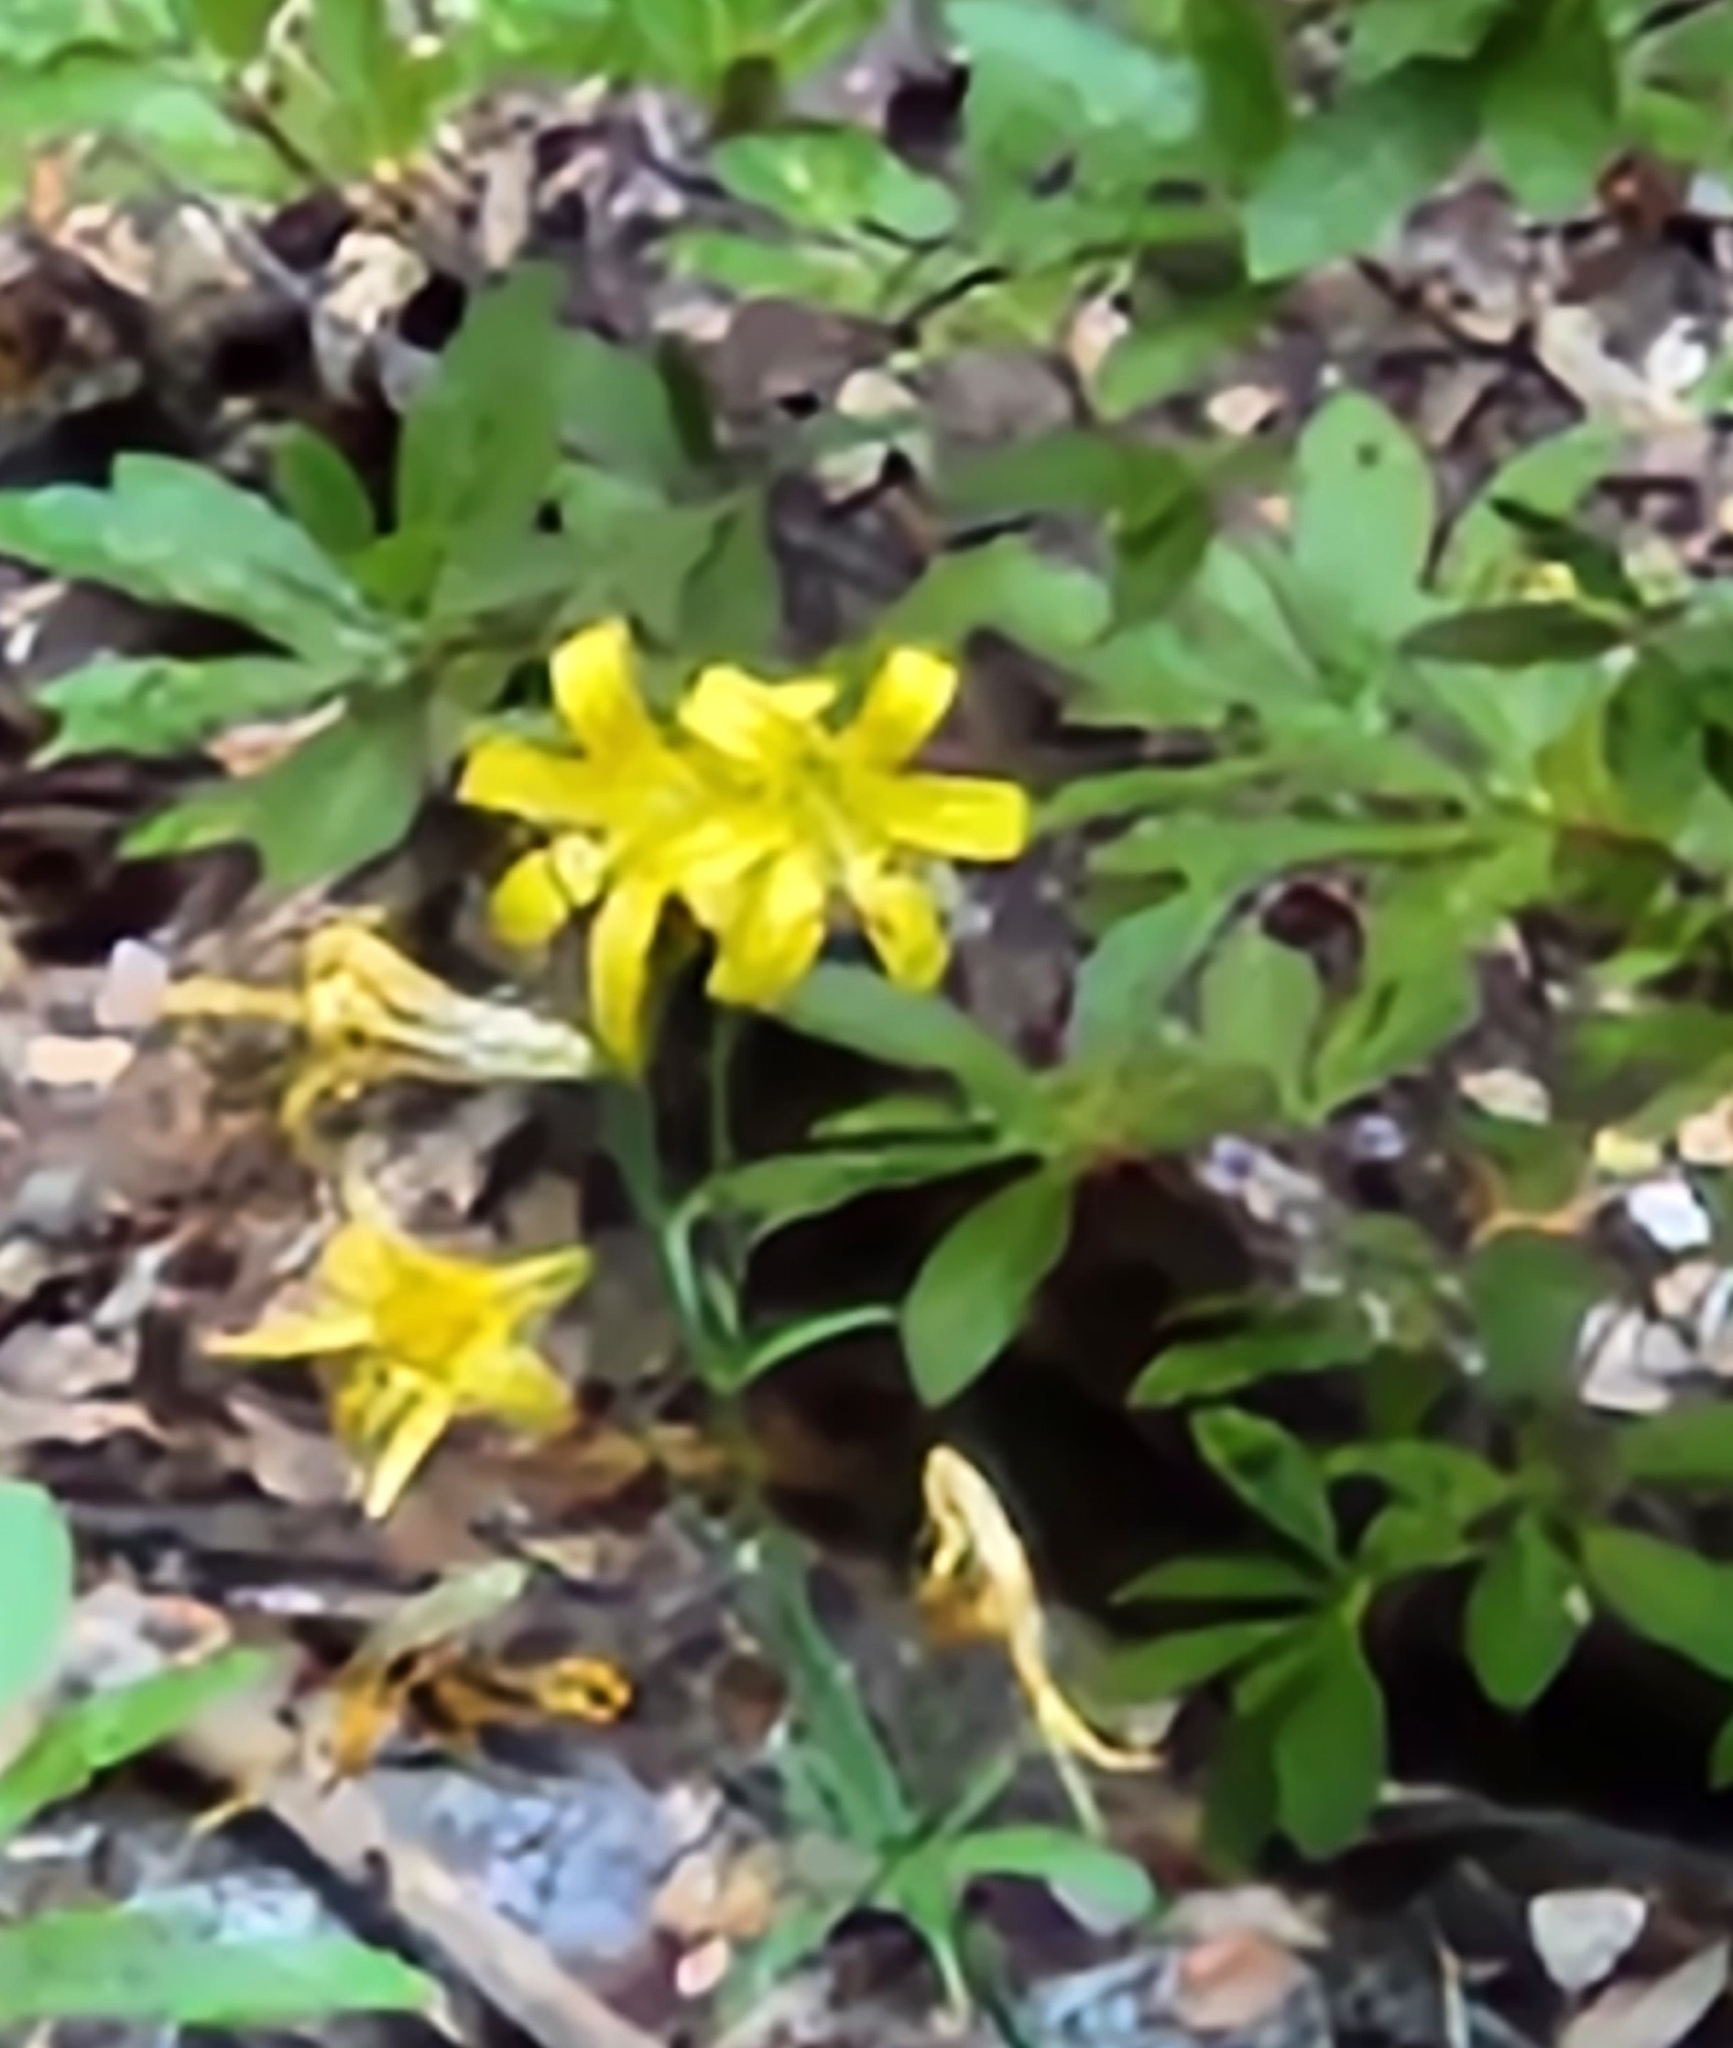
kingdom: Plantae
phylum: Tracheophyta
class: Liliopsida
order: Liliales
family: Liliaceae
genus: Lilium
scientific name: Lilium parryi
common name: Lemon lily
